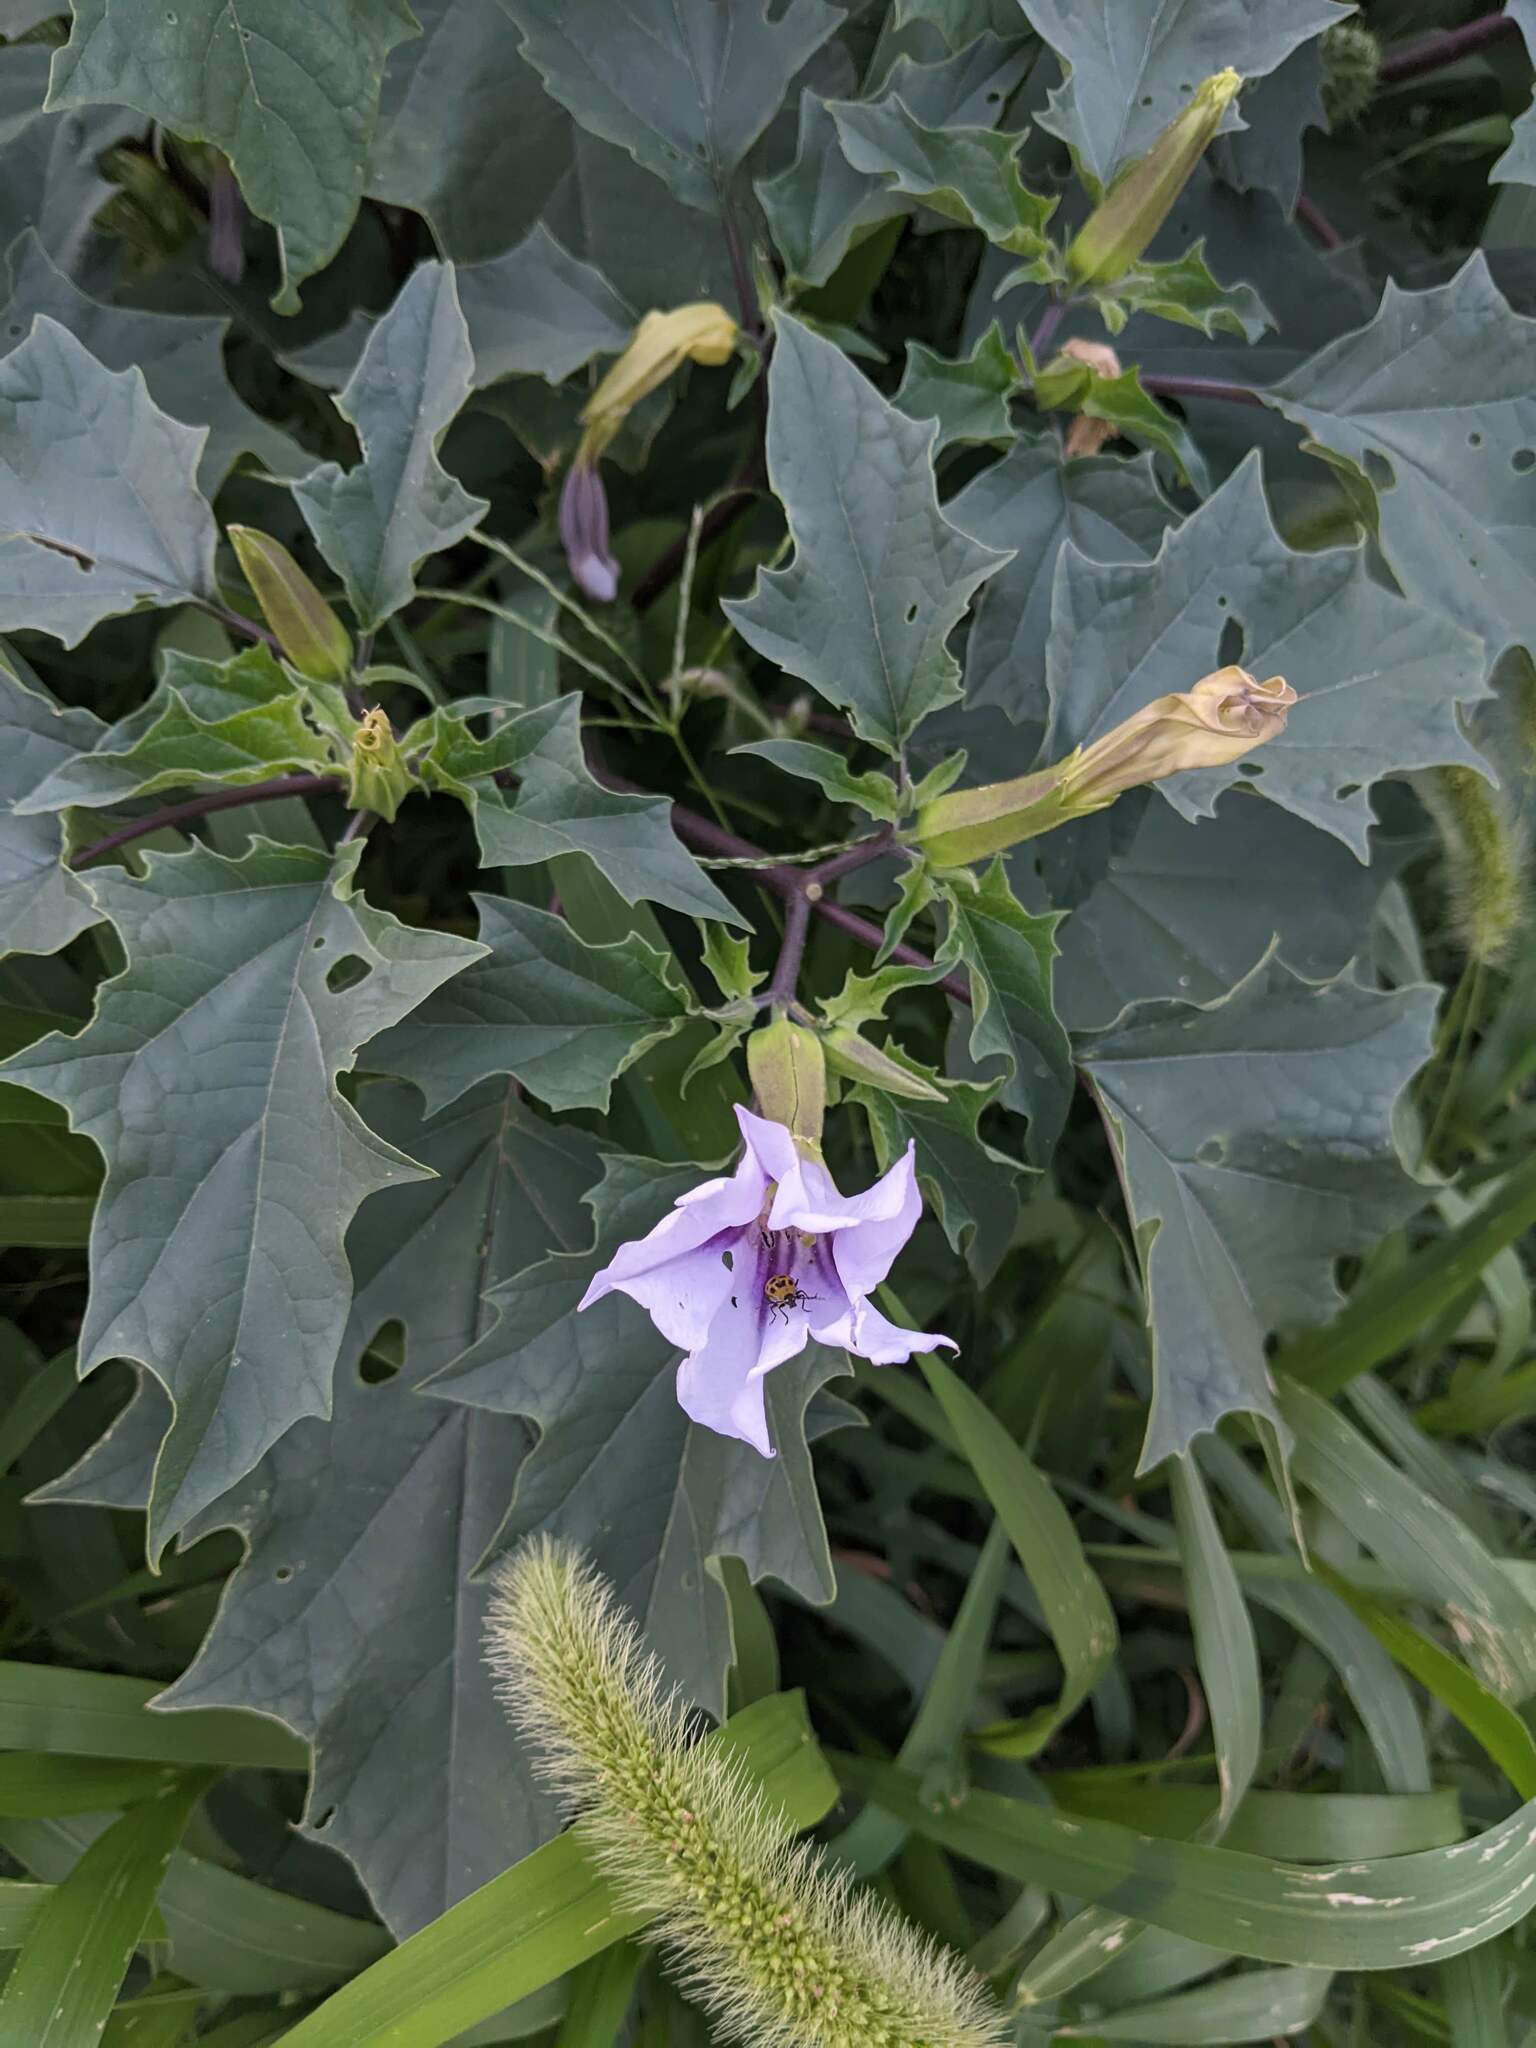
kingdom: Plantae
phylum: Tracheophyta
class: Magnoliopsida
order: Solanales
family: Solanaceae
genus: Datura
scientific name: Datura stramonium
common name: Thorn-apple
